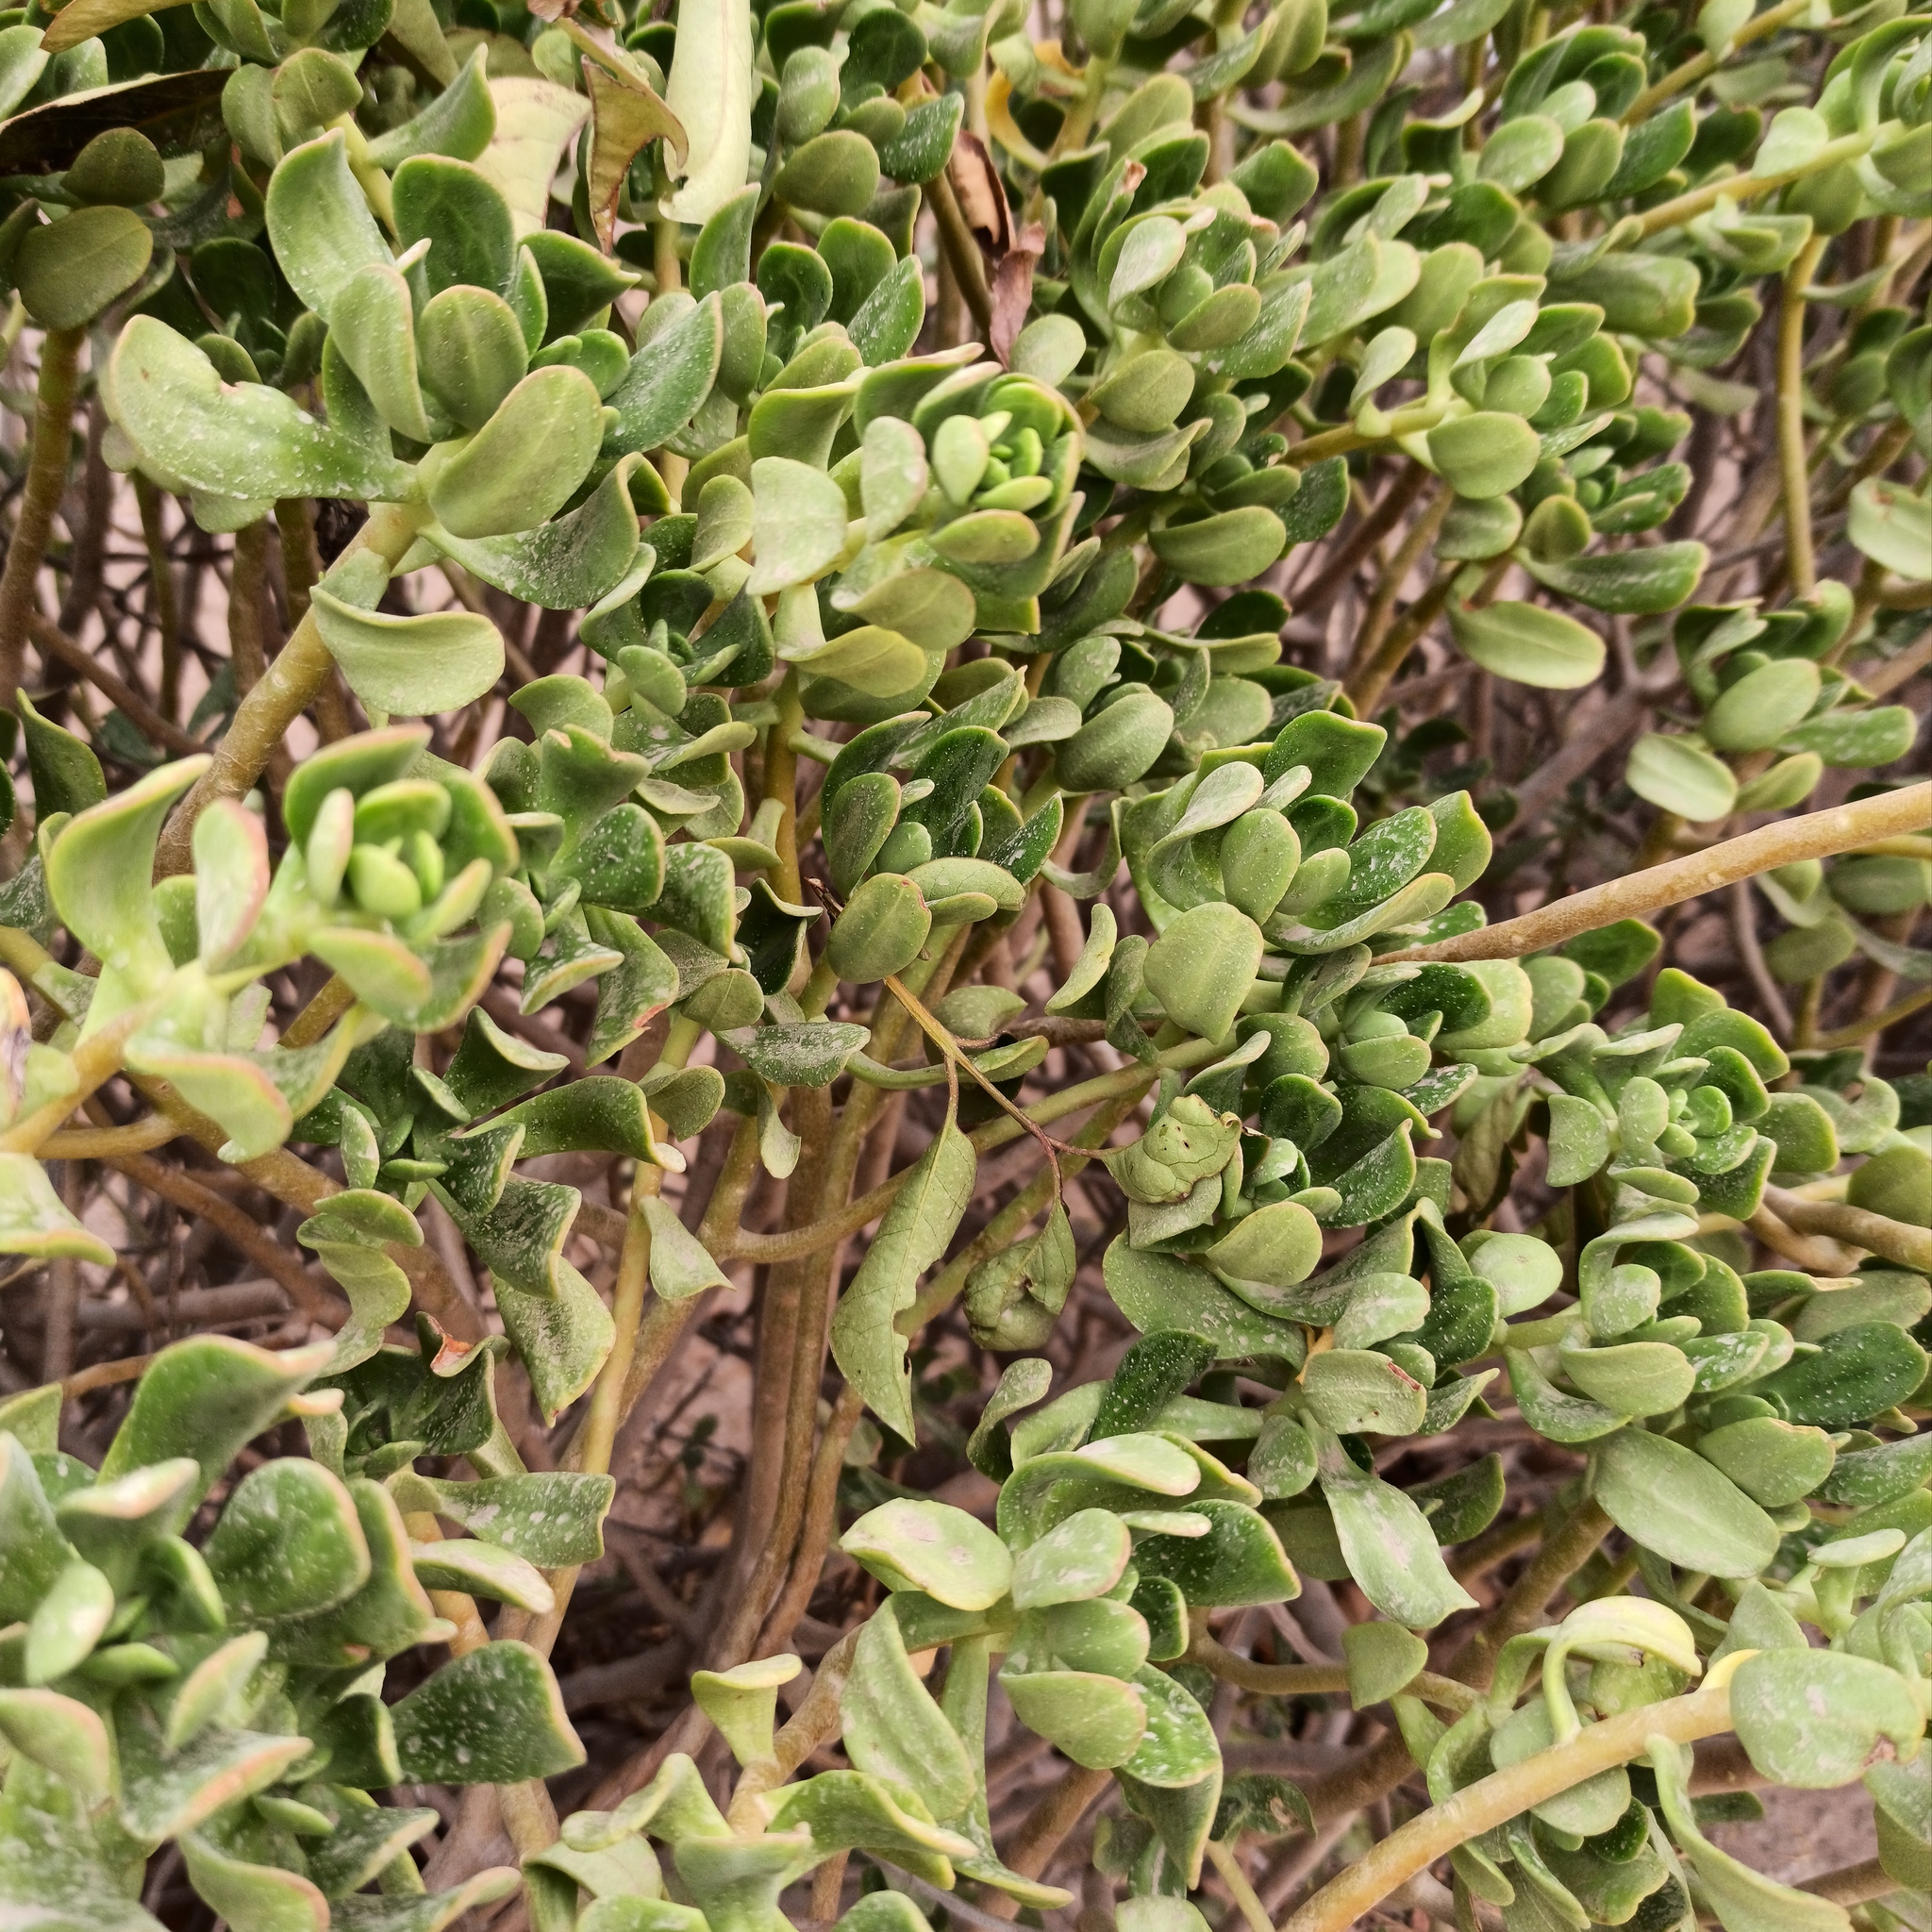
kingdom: Plantae
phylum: Tracheophyta
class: Magnoliopsida
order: Saxifragales
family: Crassulaceae
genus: Sedum
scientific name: Sedum dendroideum
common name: Tree stonecrop
